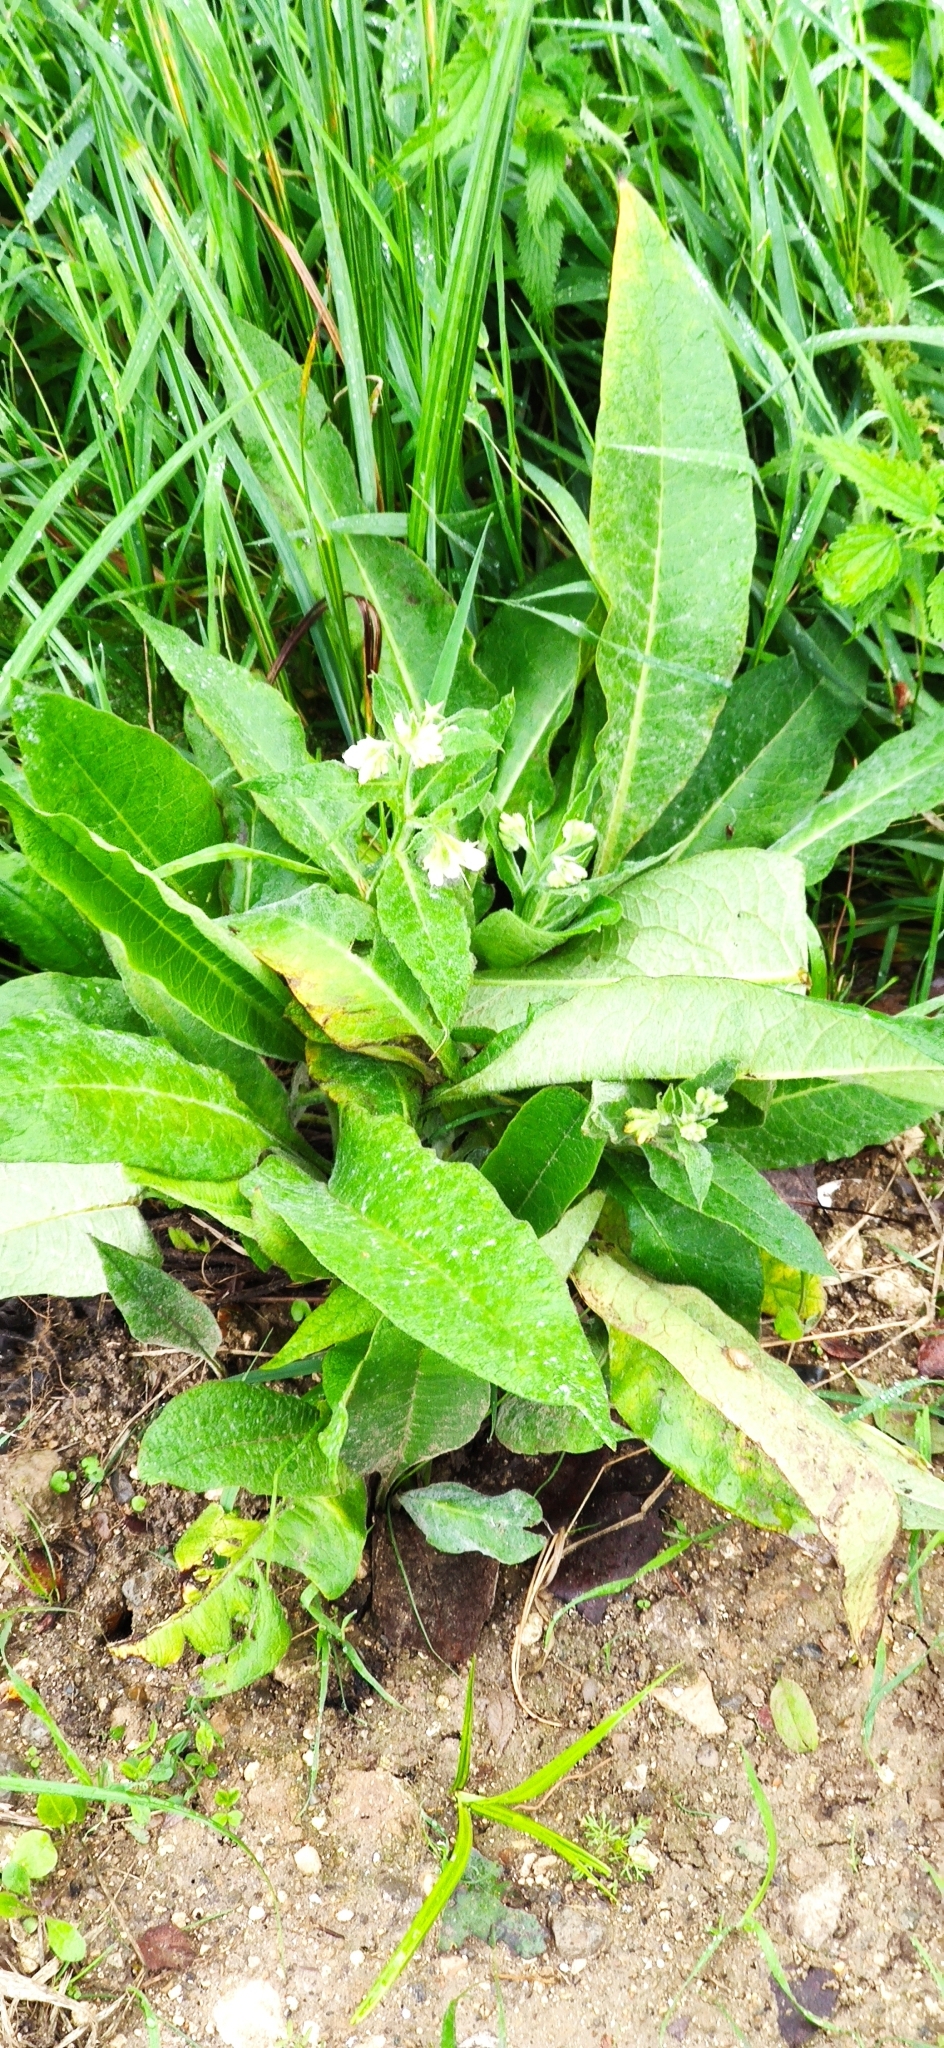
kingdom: Plantae
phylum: Tracheophyta
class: Magnoliopsida
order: Boraginales
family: Boraginaceae
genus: Symphytum
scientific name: Symphytum officinale
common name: Common comfrey
